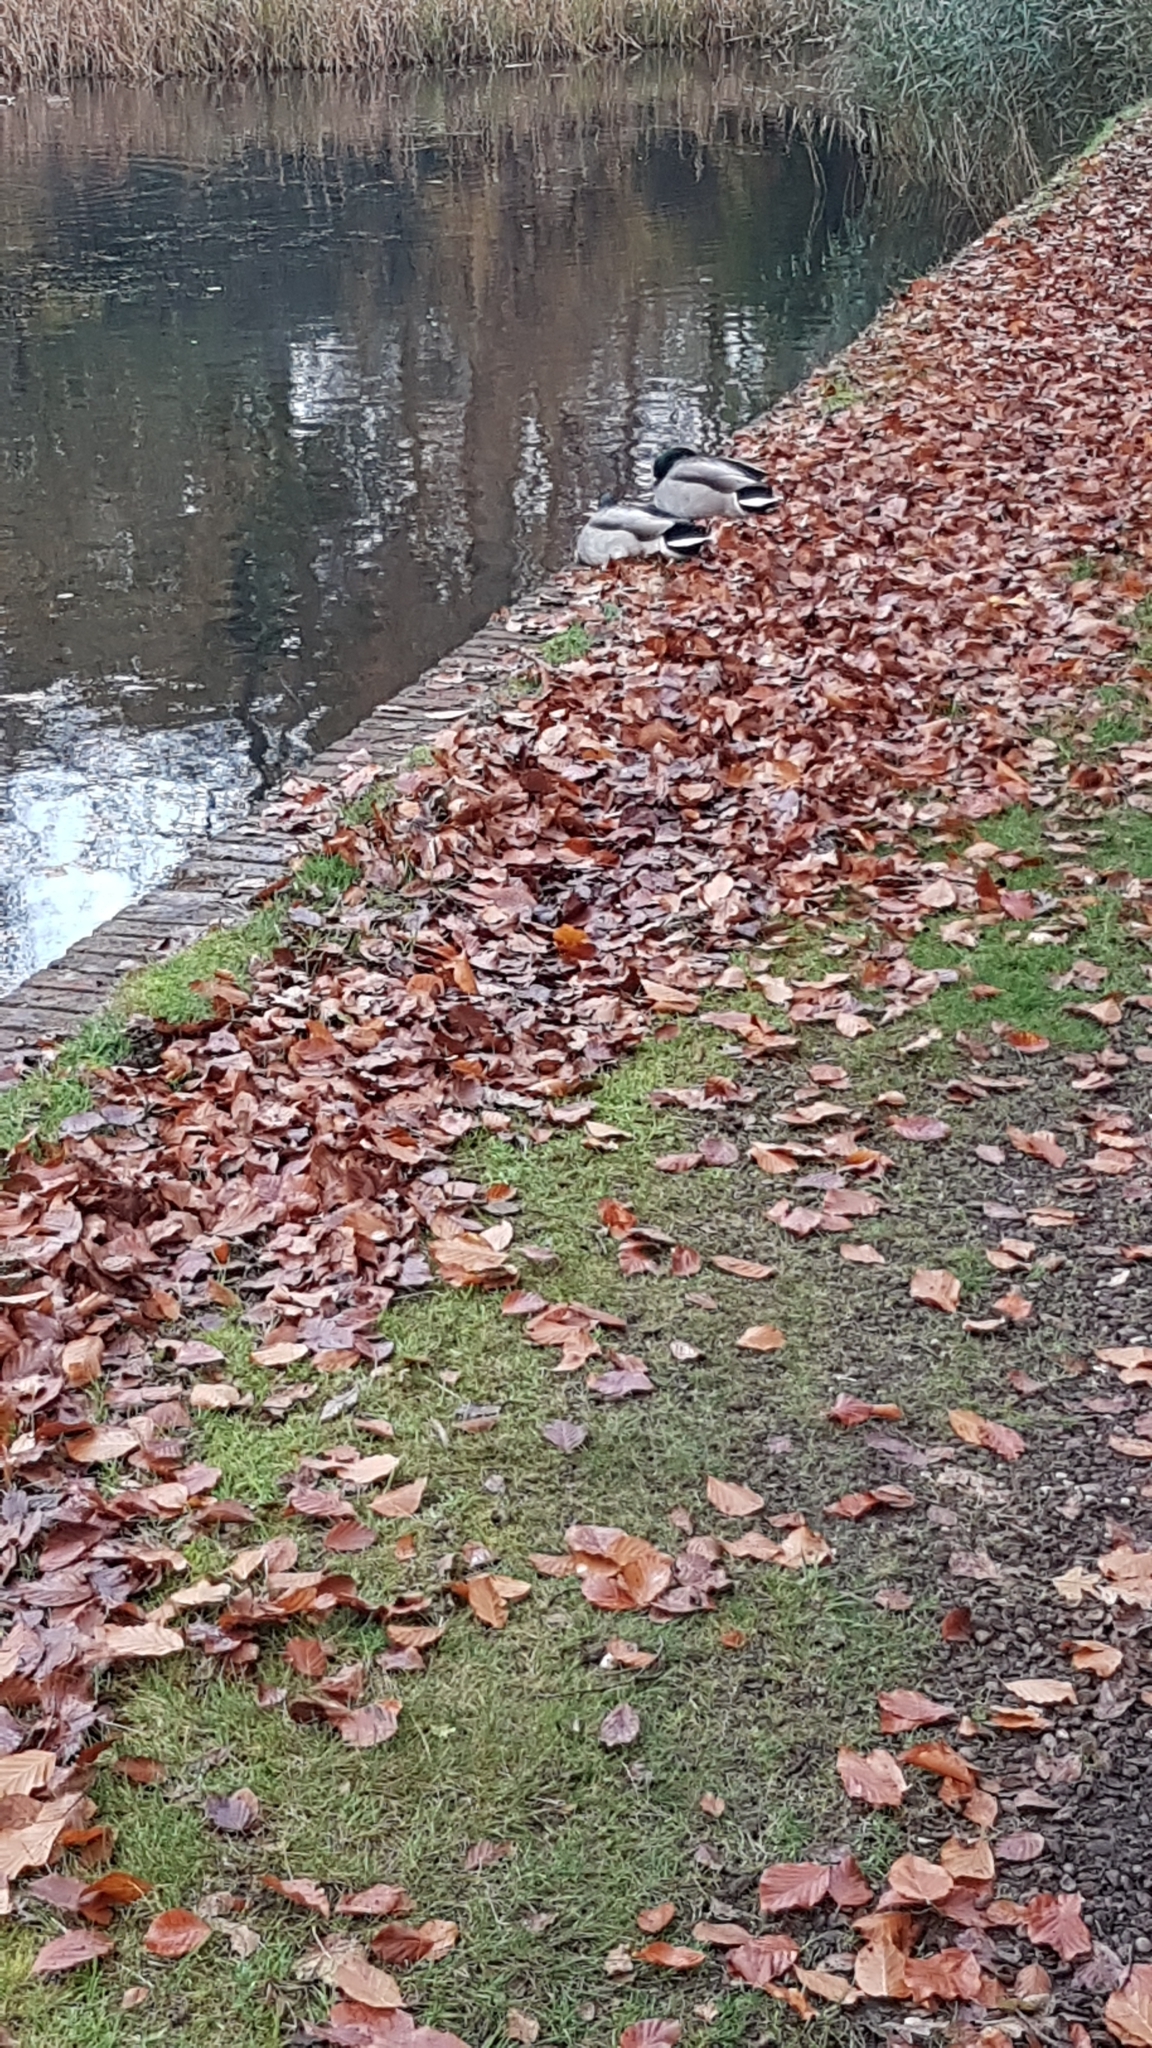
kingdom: Animalia
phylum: Chordata
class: Aves
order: Anseriformes
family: Anatidae
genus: Anas
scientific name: Anas platyrhynchos
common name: Mallard
